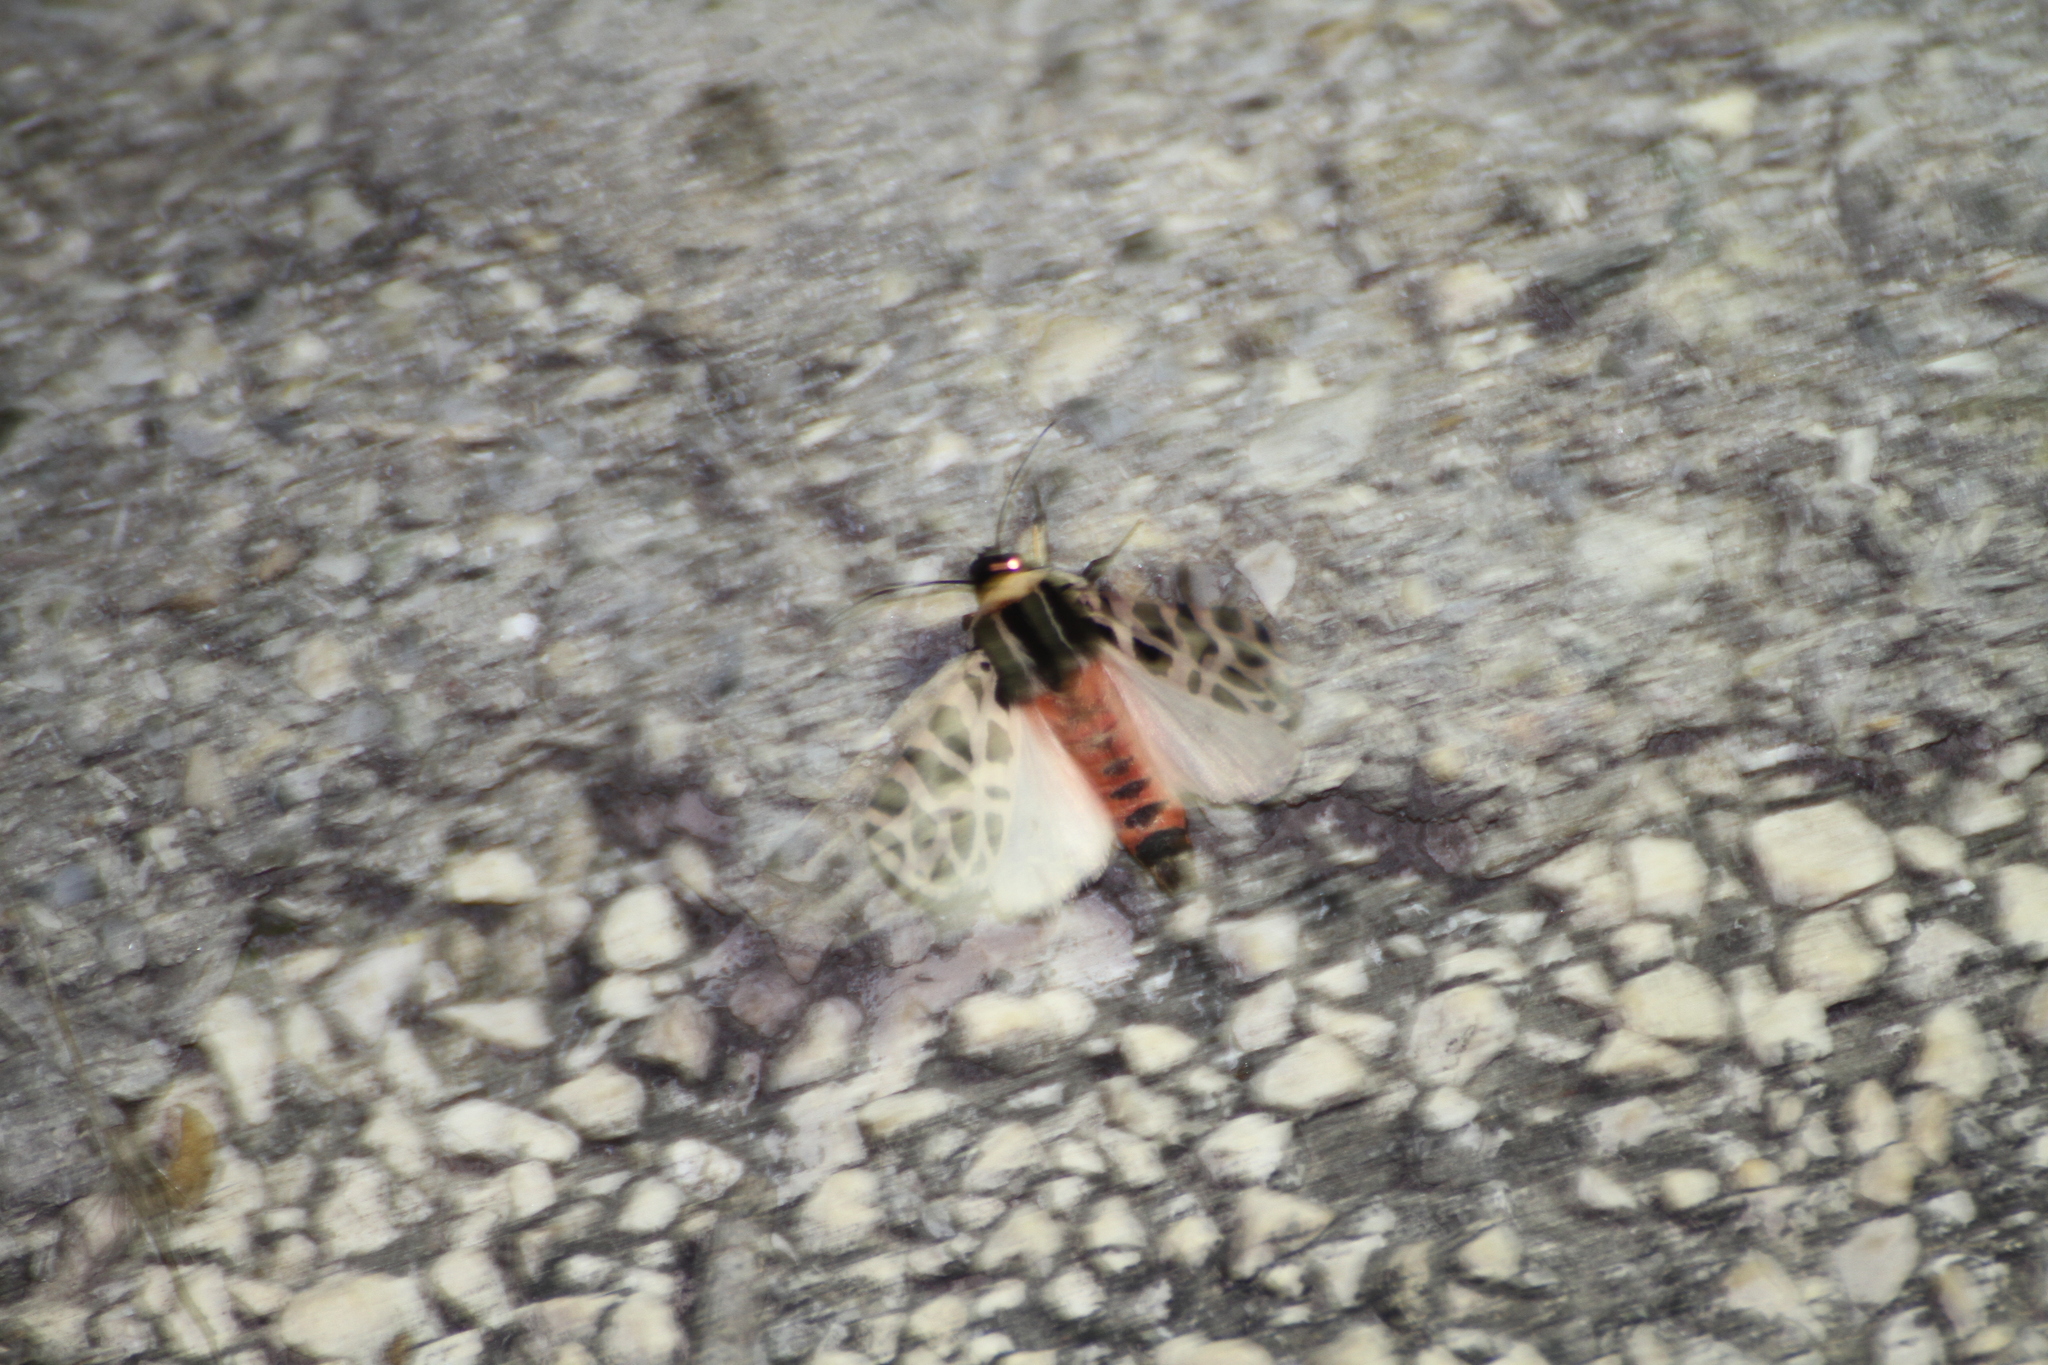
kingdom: Animalia
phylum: Arthropoda
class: Insecta
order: Lepidoptera
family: Erebidae
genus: Cymbalophora
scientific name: Cymbalophora pudica
